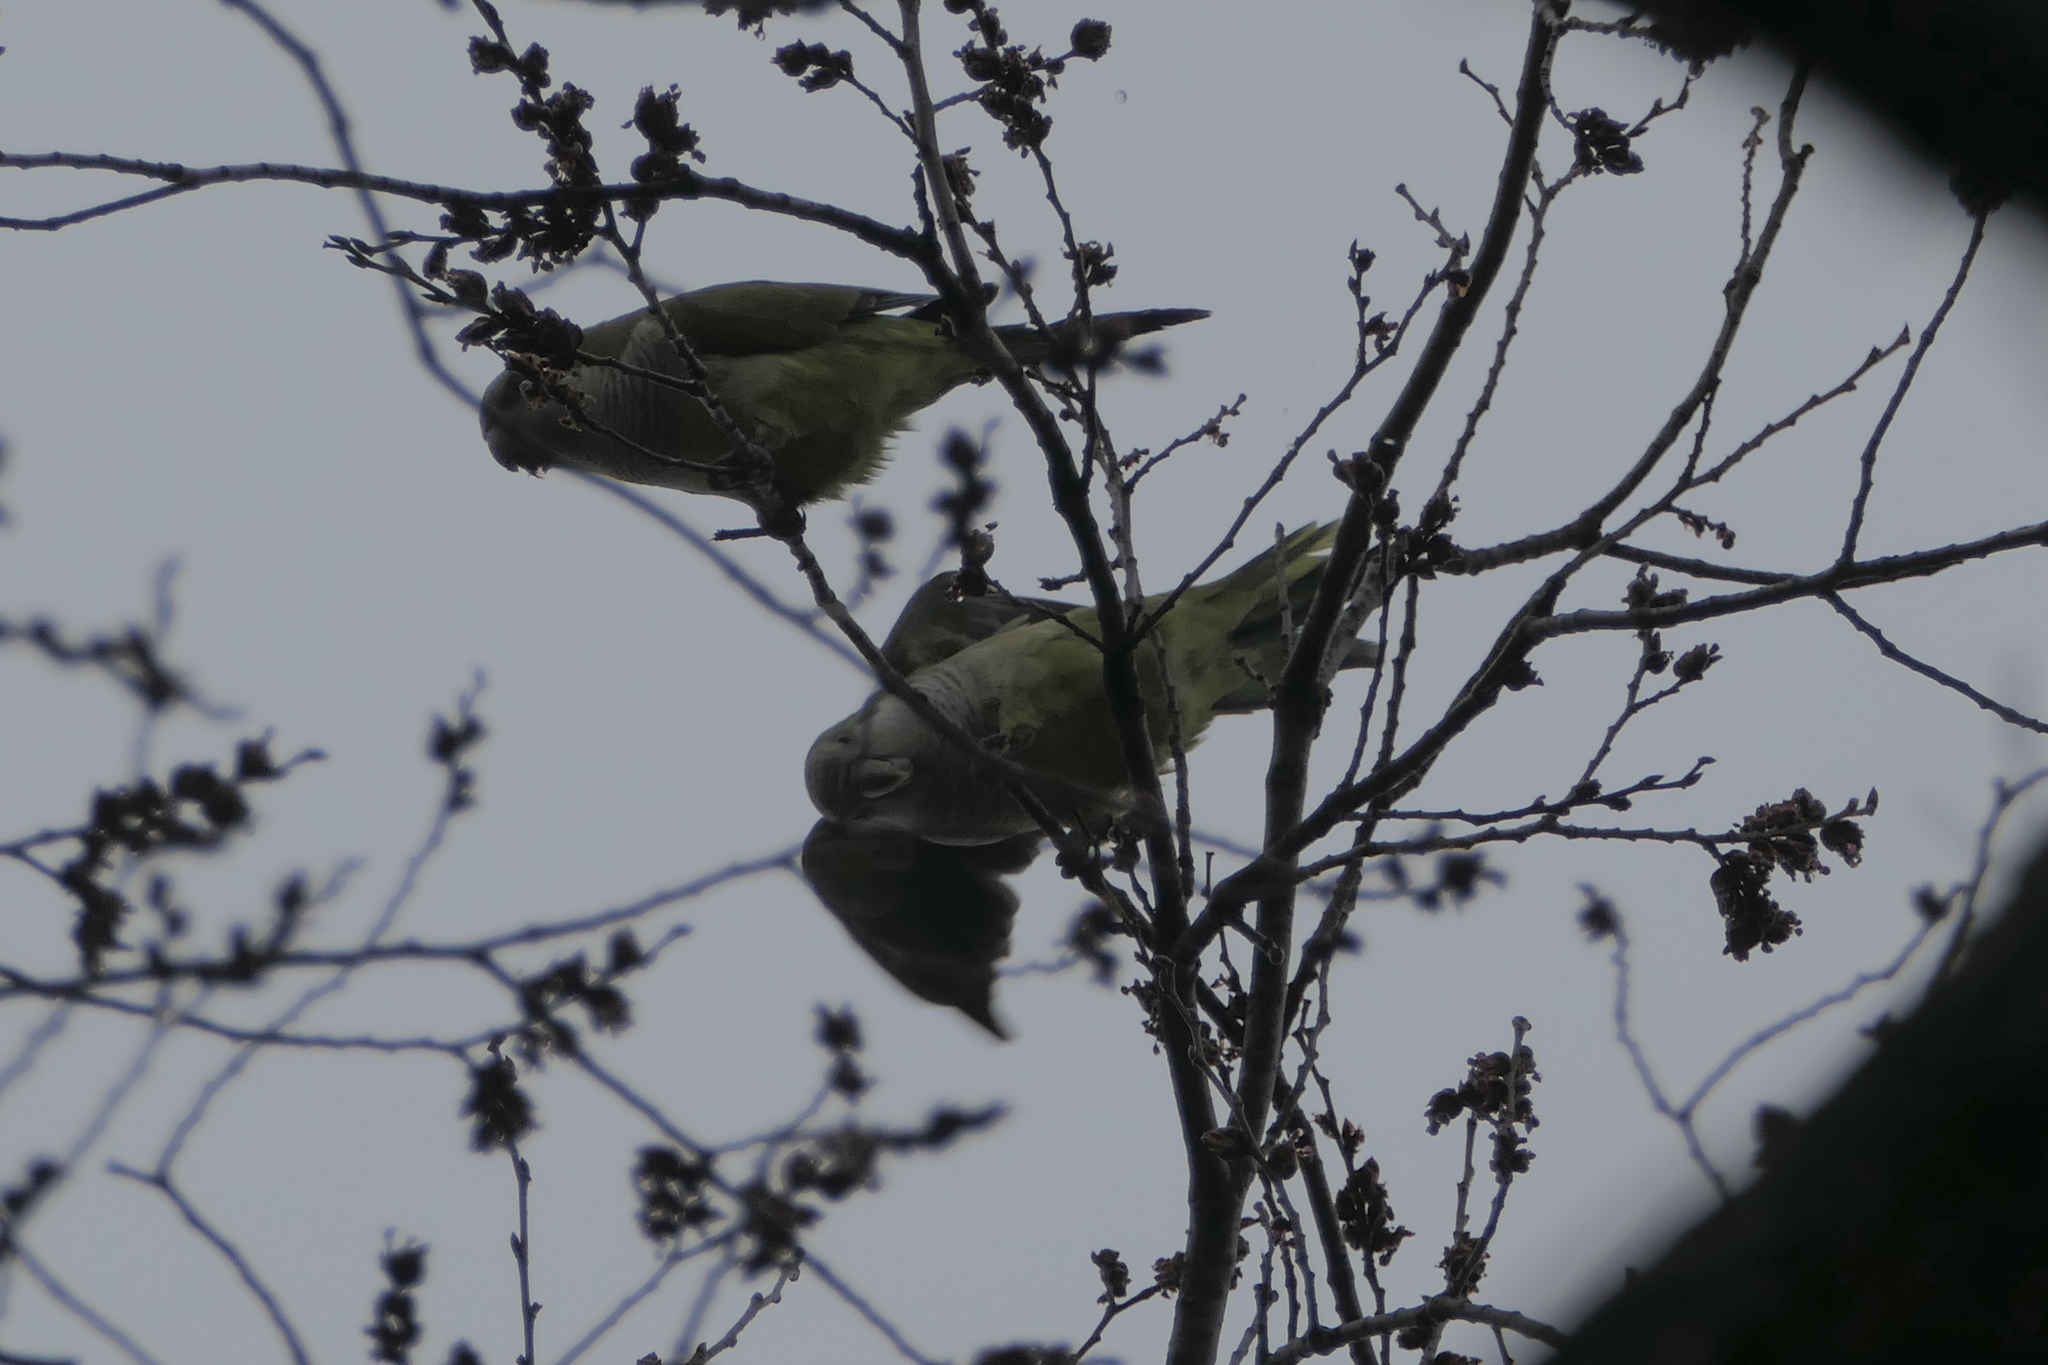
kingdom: Animalia
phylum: Chordata
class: Aves
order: Psittaciformes
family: Psittacidae
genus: Myiopsitta
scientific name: Myiopsitta monachus
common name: Monk parakeet
